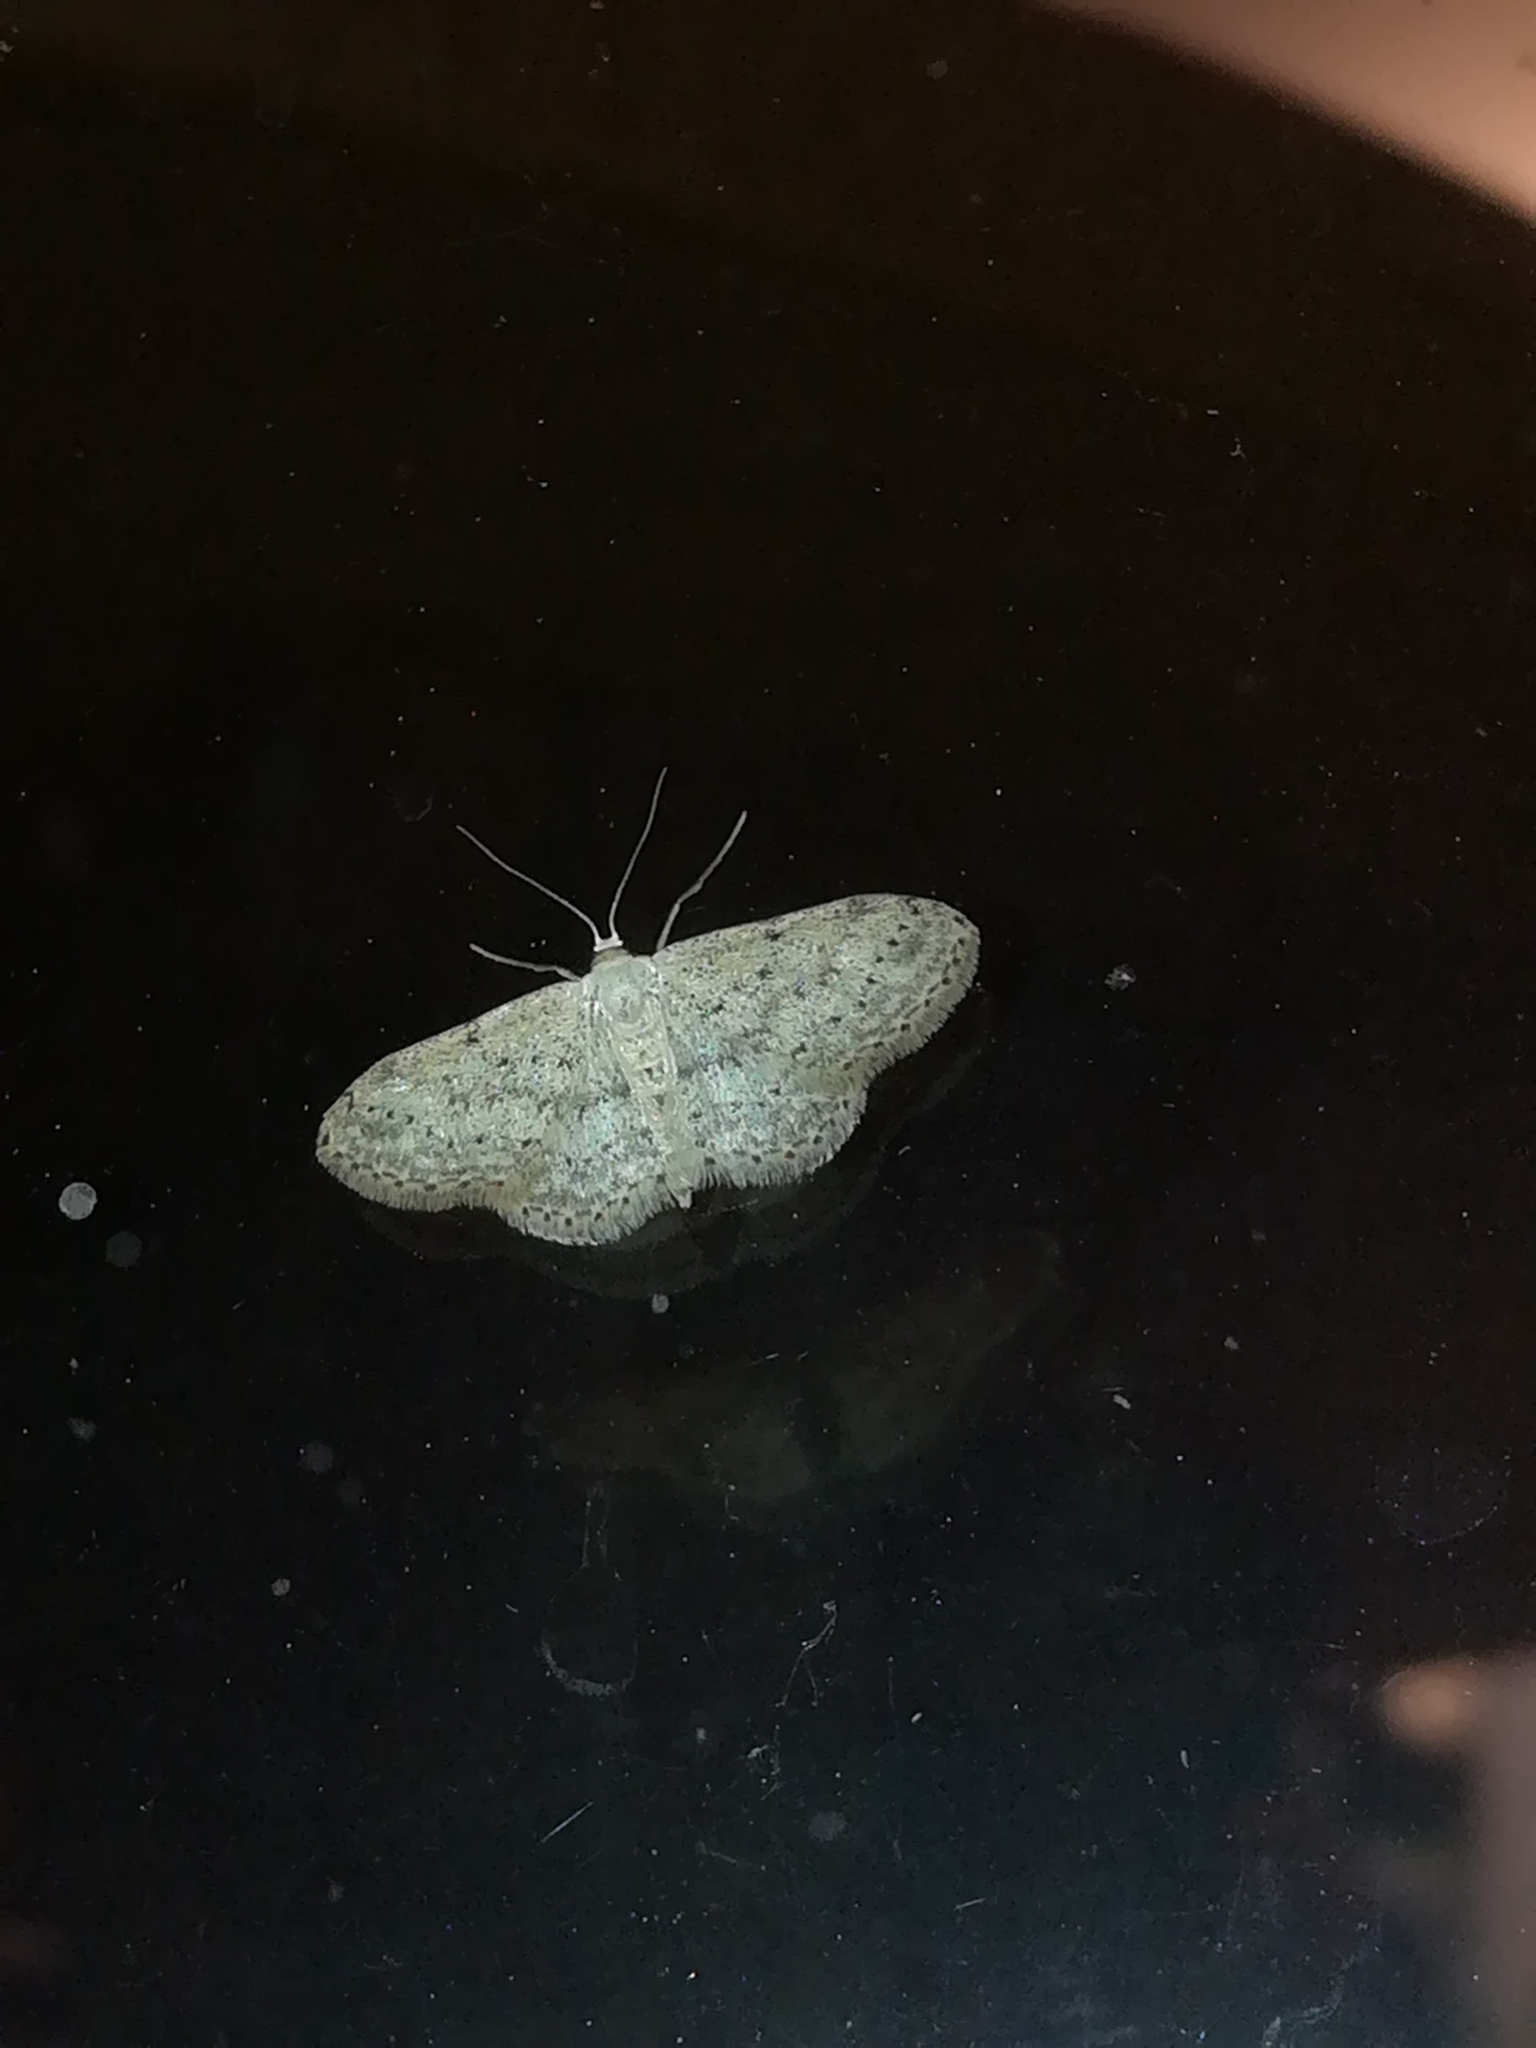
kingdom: Animalia
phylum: Arthropoda
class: Insecta
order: Lepidoptera
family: Geometridae
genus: Idaea
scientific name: Idaea seriata
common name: Small dusty wave
